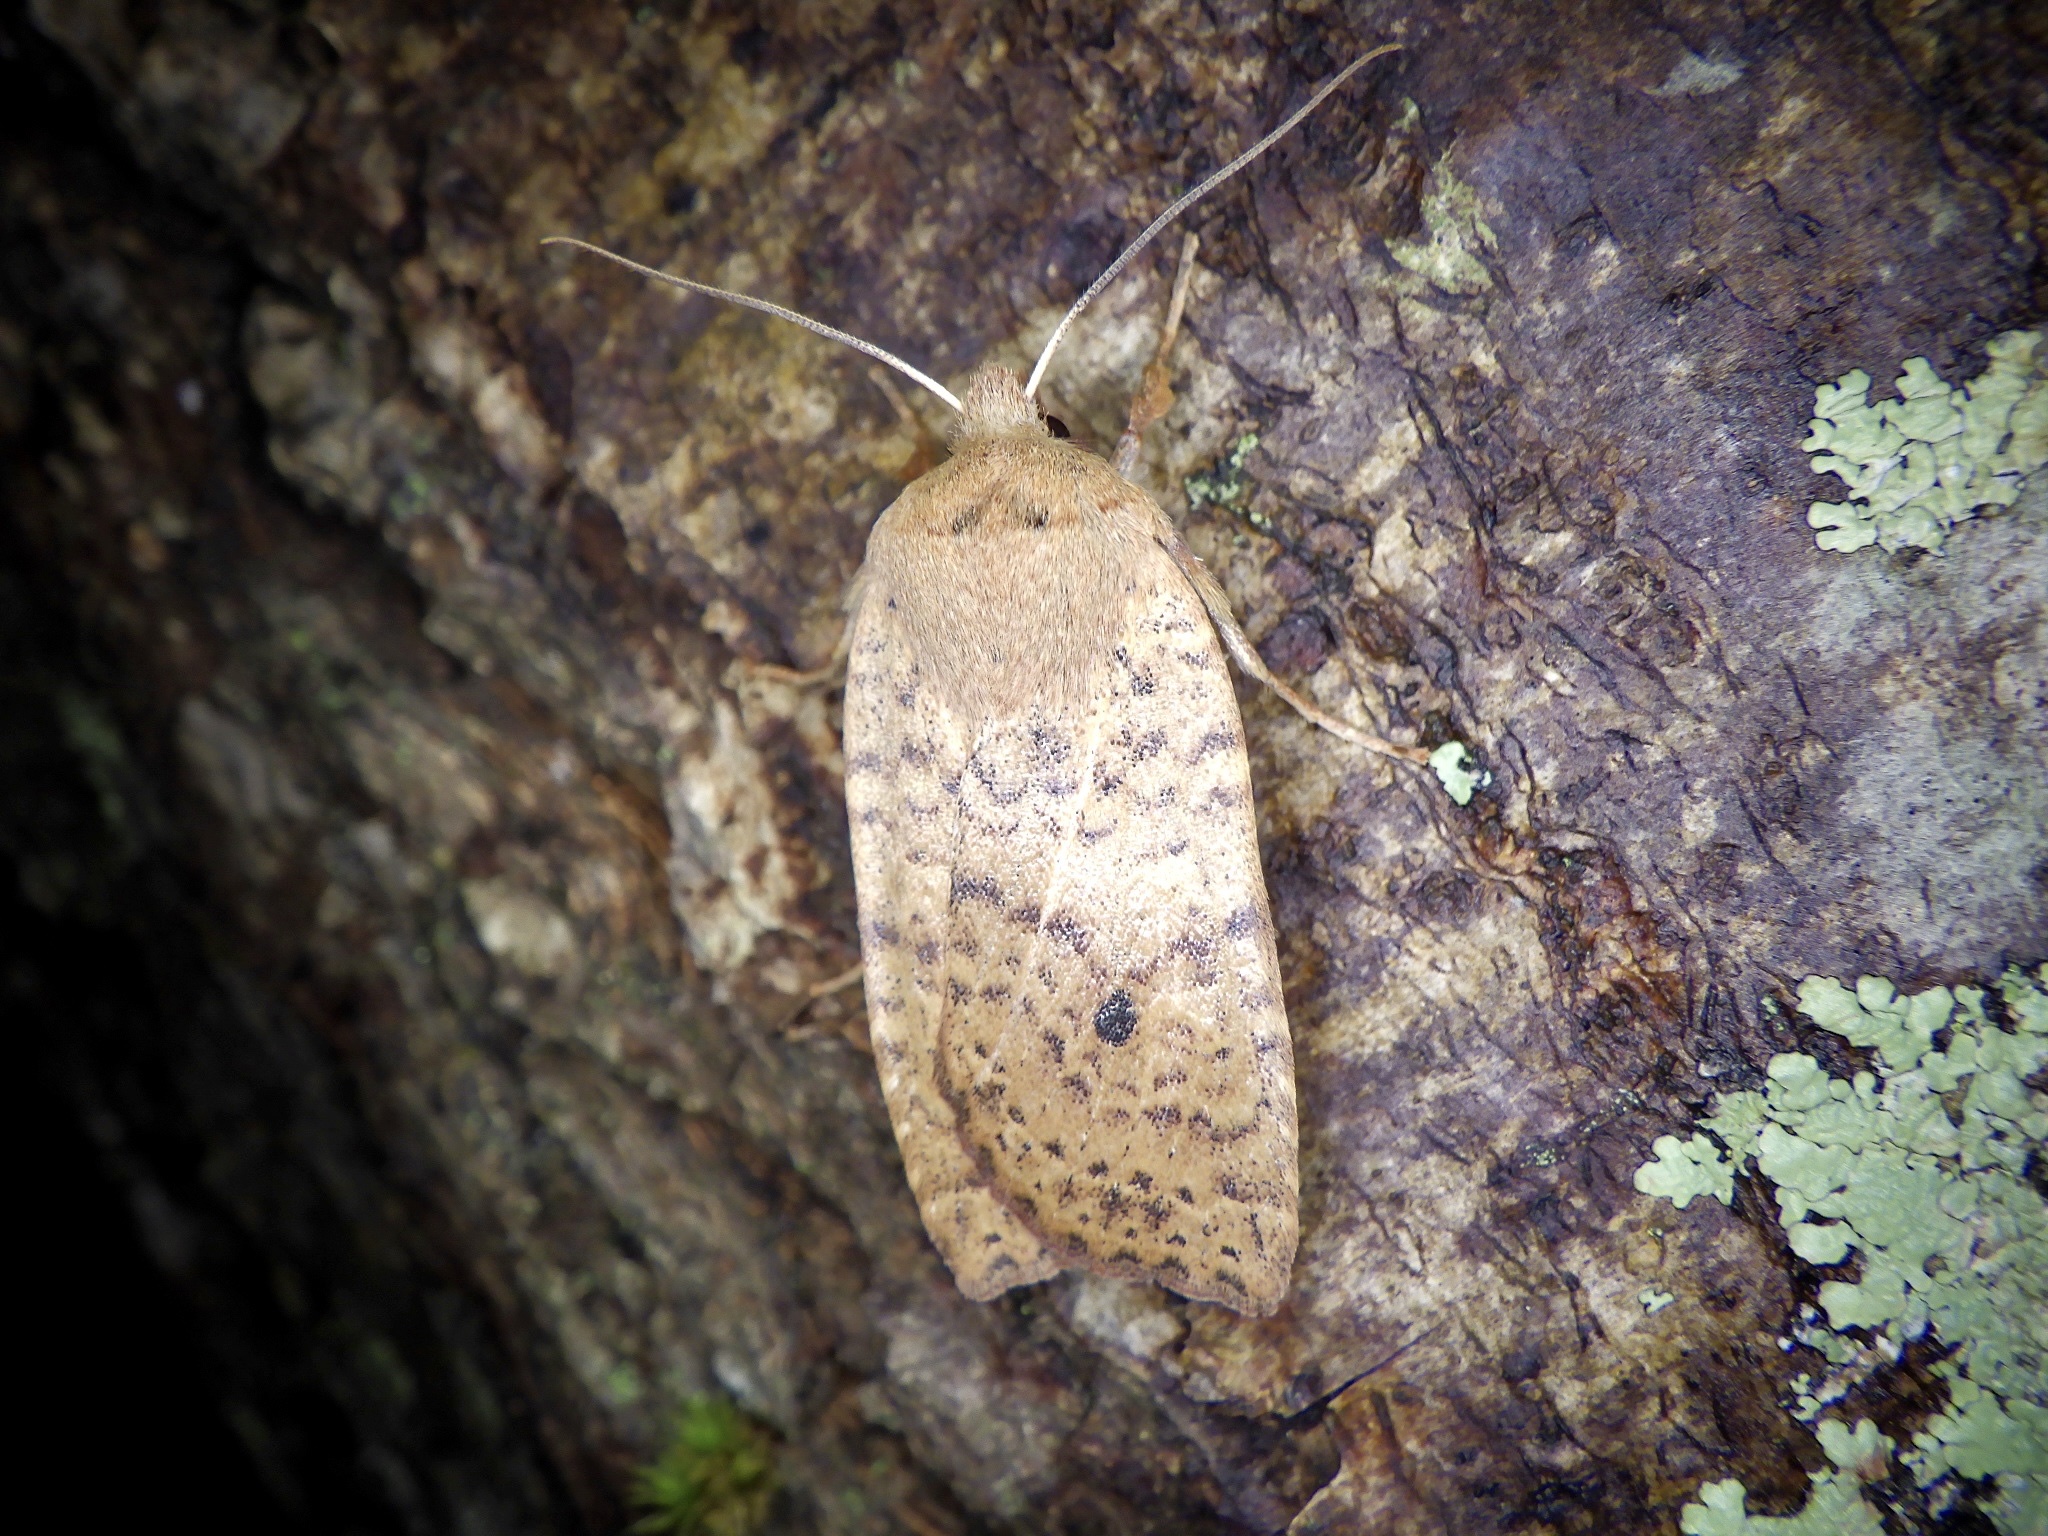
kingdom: Animalia
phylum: Arthropoda
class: Insecta
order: Lepidoptera
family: Noctuidae
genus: Conistra
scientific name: Conistra albipuncta
